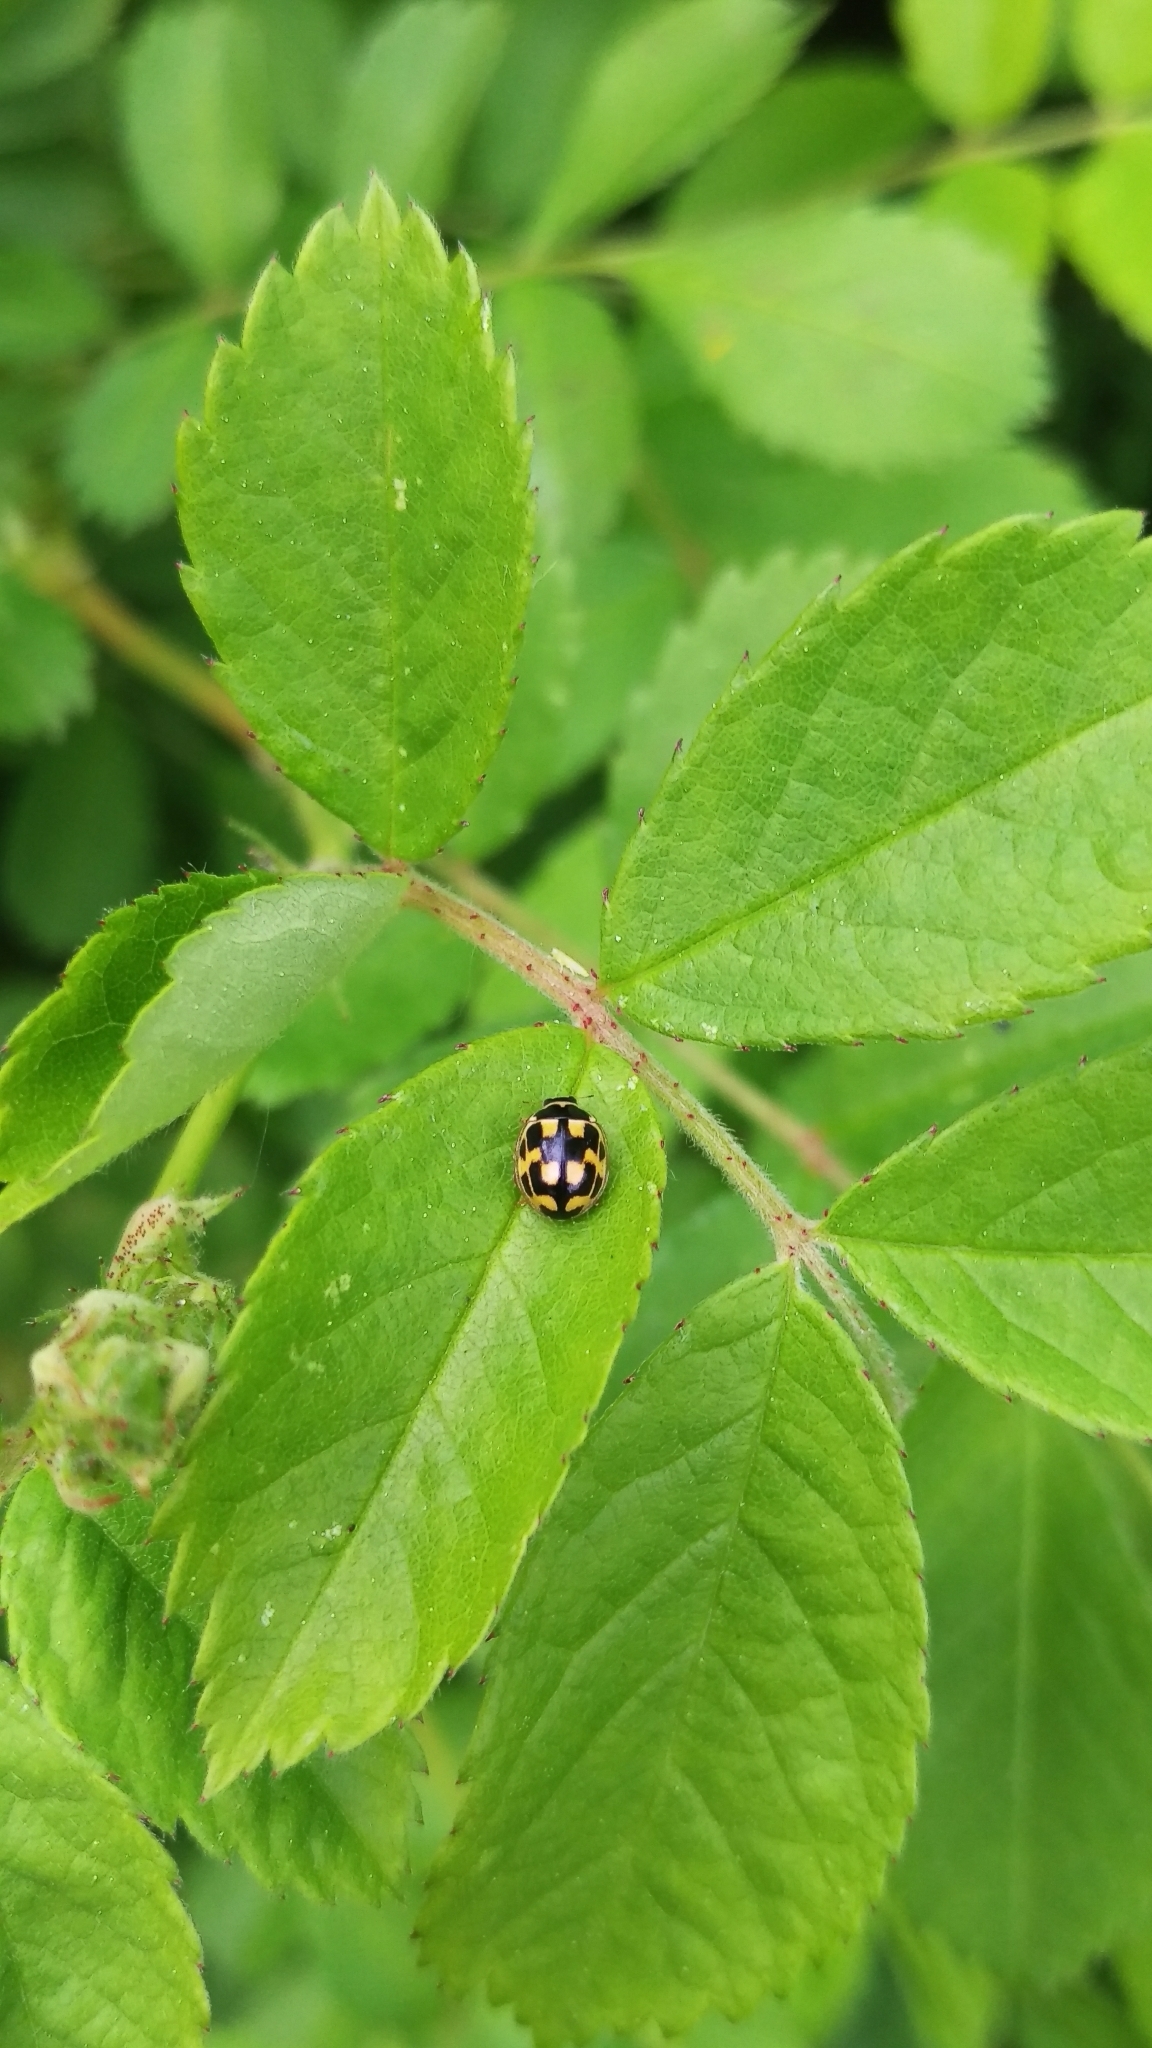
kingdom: Animalia
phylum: Arthropoda
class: Insecta
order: Coleoptera
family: Coccinellidae
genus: Propylaea
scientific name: Propylaea quatuordecimpunctata
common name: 14-spotted ladybird beetle
